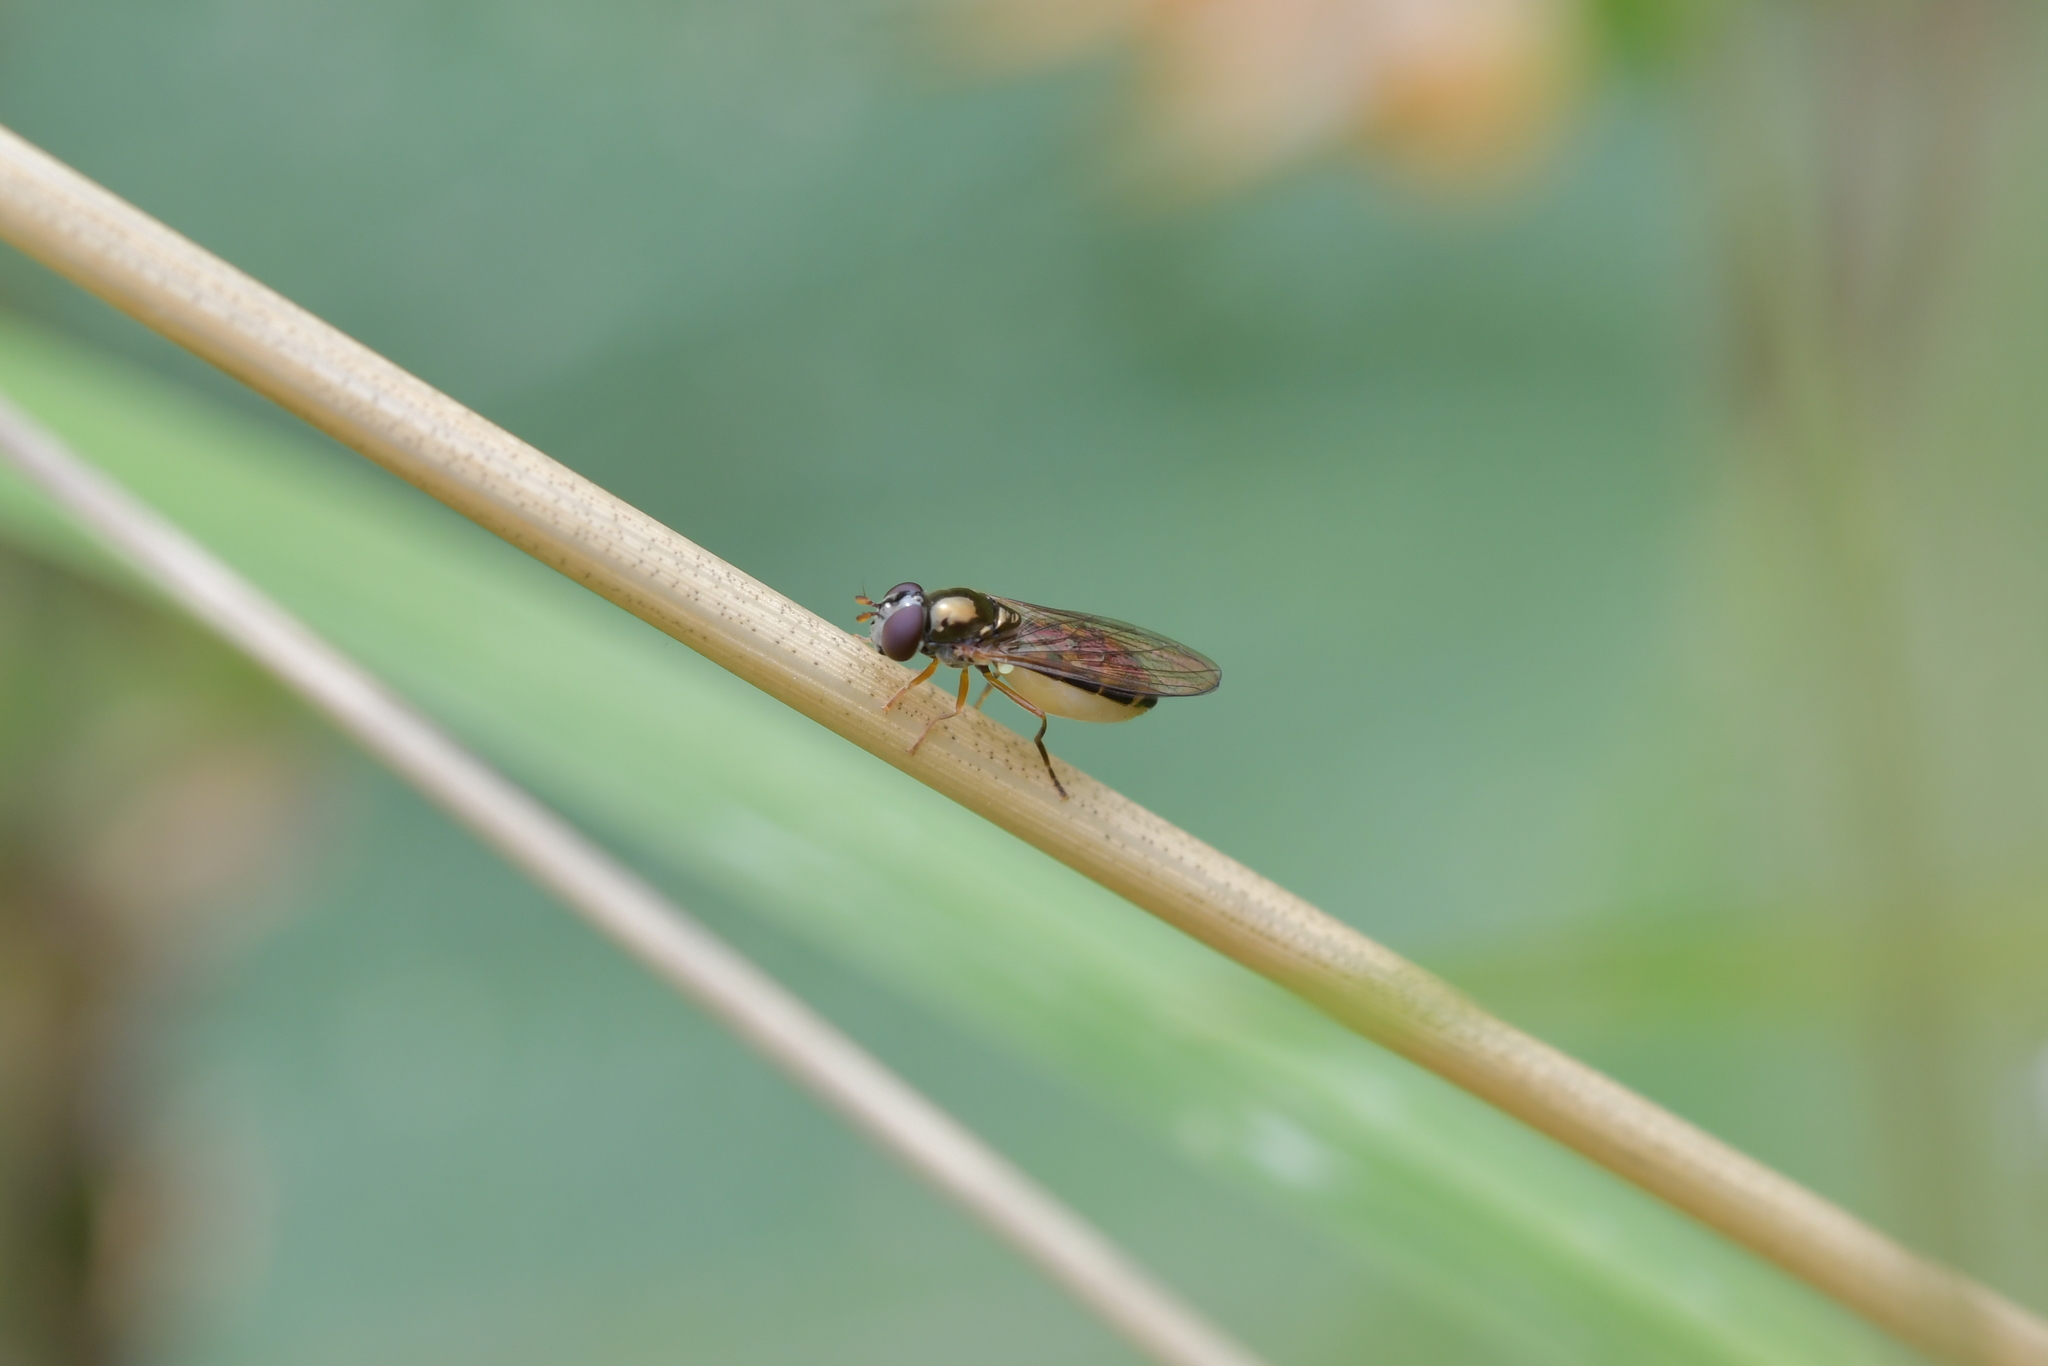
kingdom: Animalia
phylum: Arthropoda
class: Insecta
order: Diptera
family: Syrphidae
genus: Melanostoma
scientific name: Melanostoma fasciatum
